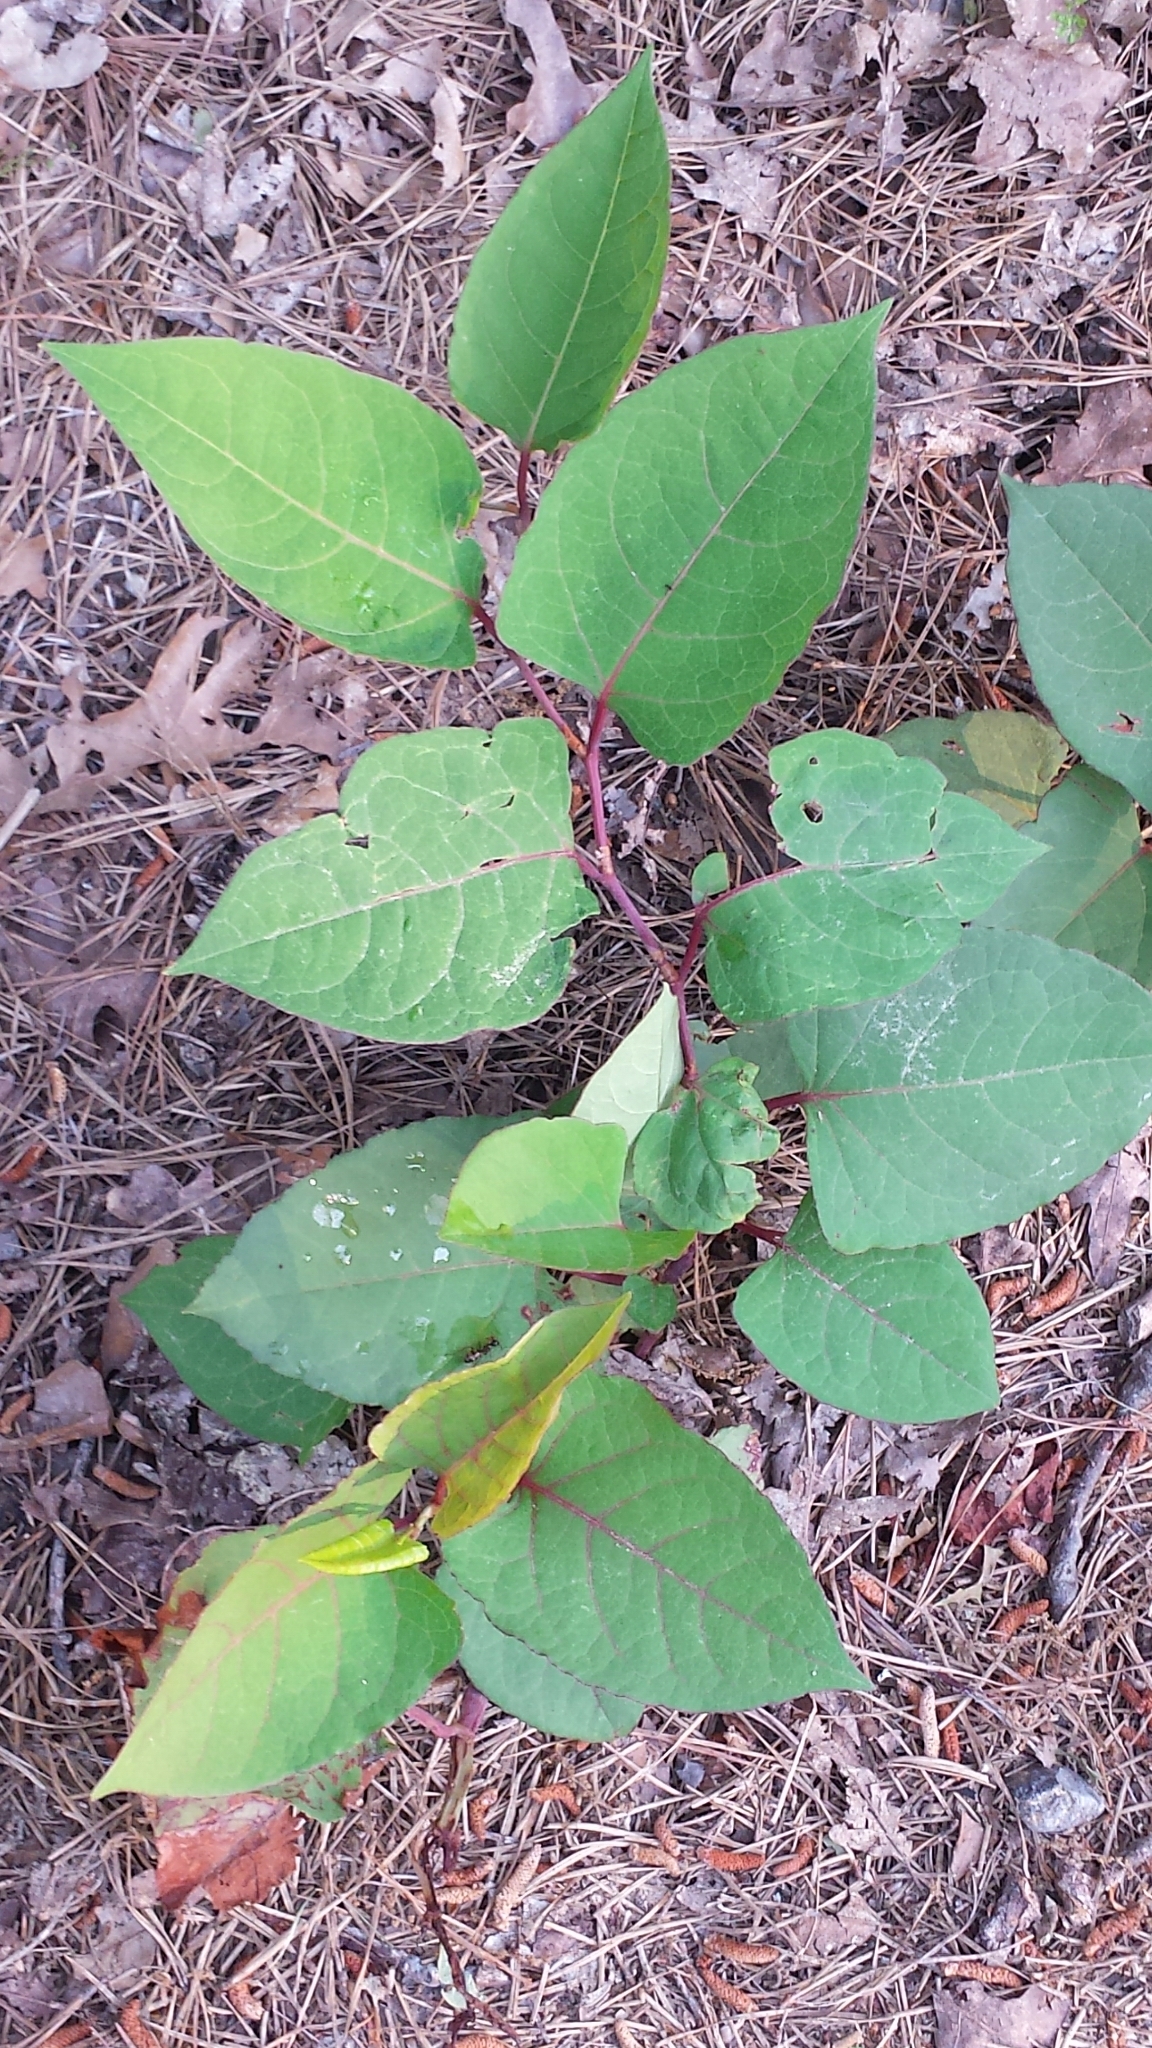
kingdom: Plantae
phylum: Tracheophyta
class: Magnoliopsida
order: Caryophyllales
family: Polygonaceae
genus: Reynoutria
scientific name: Reynoutria japonica
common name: Japanese knotweed
